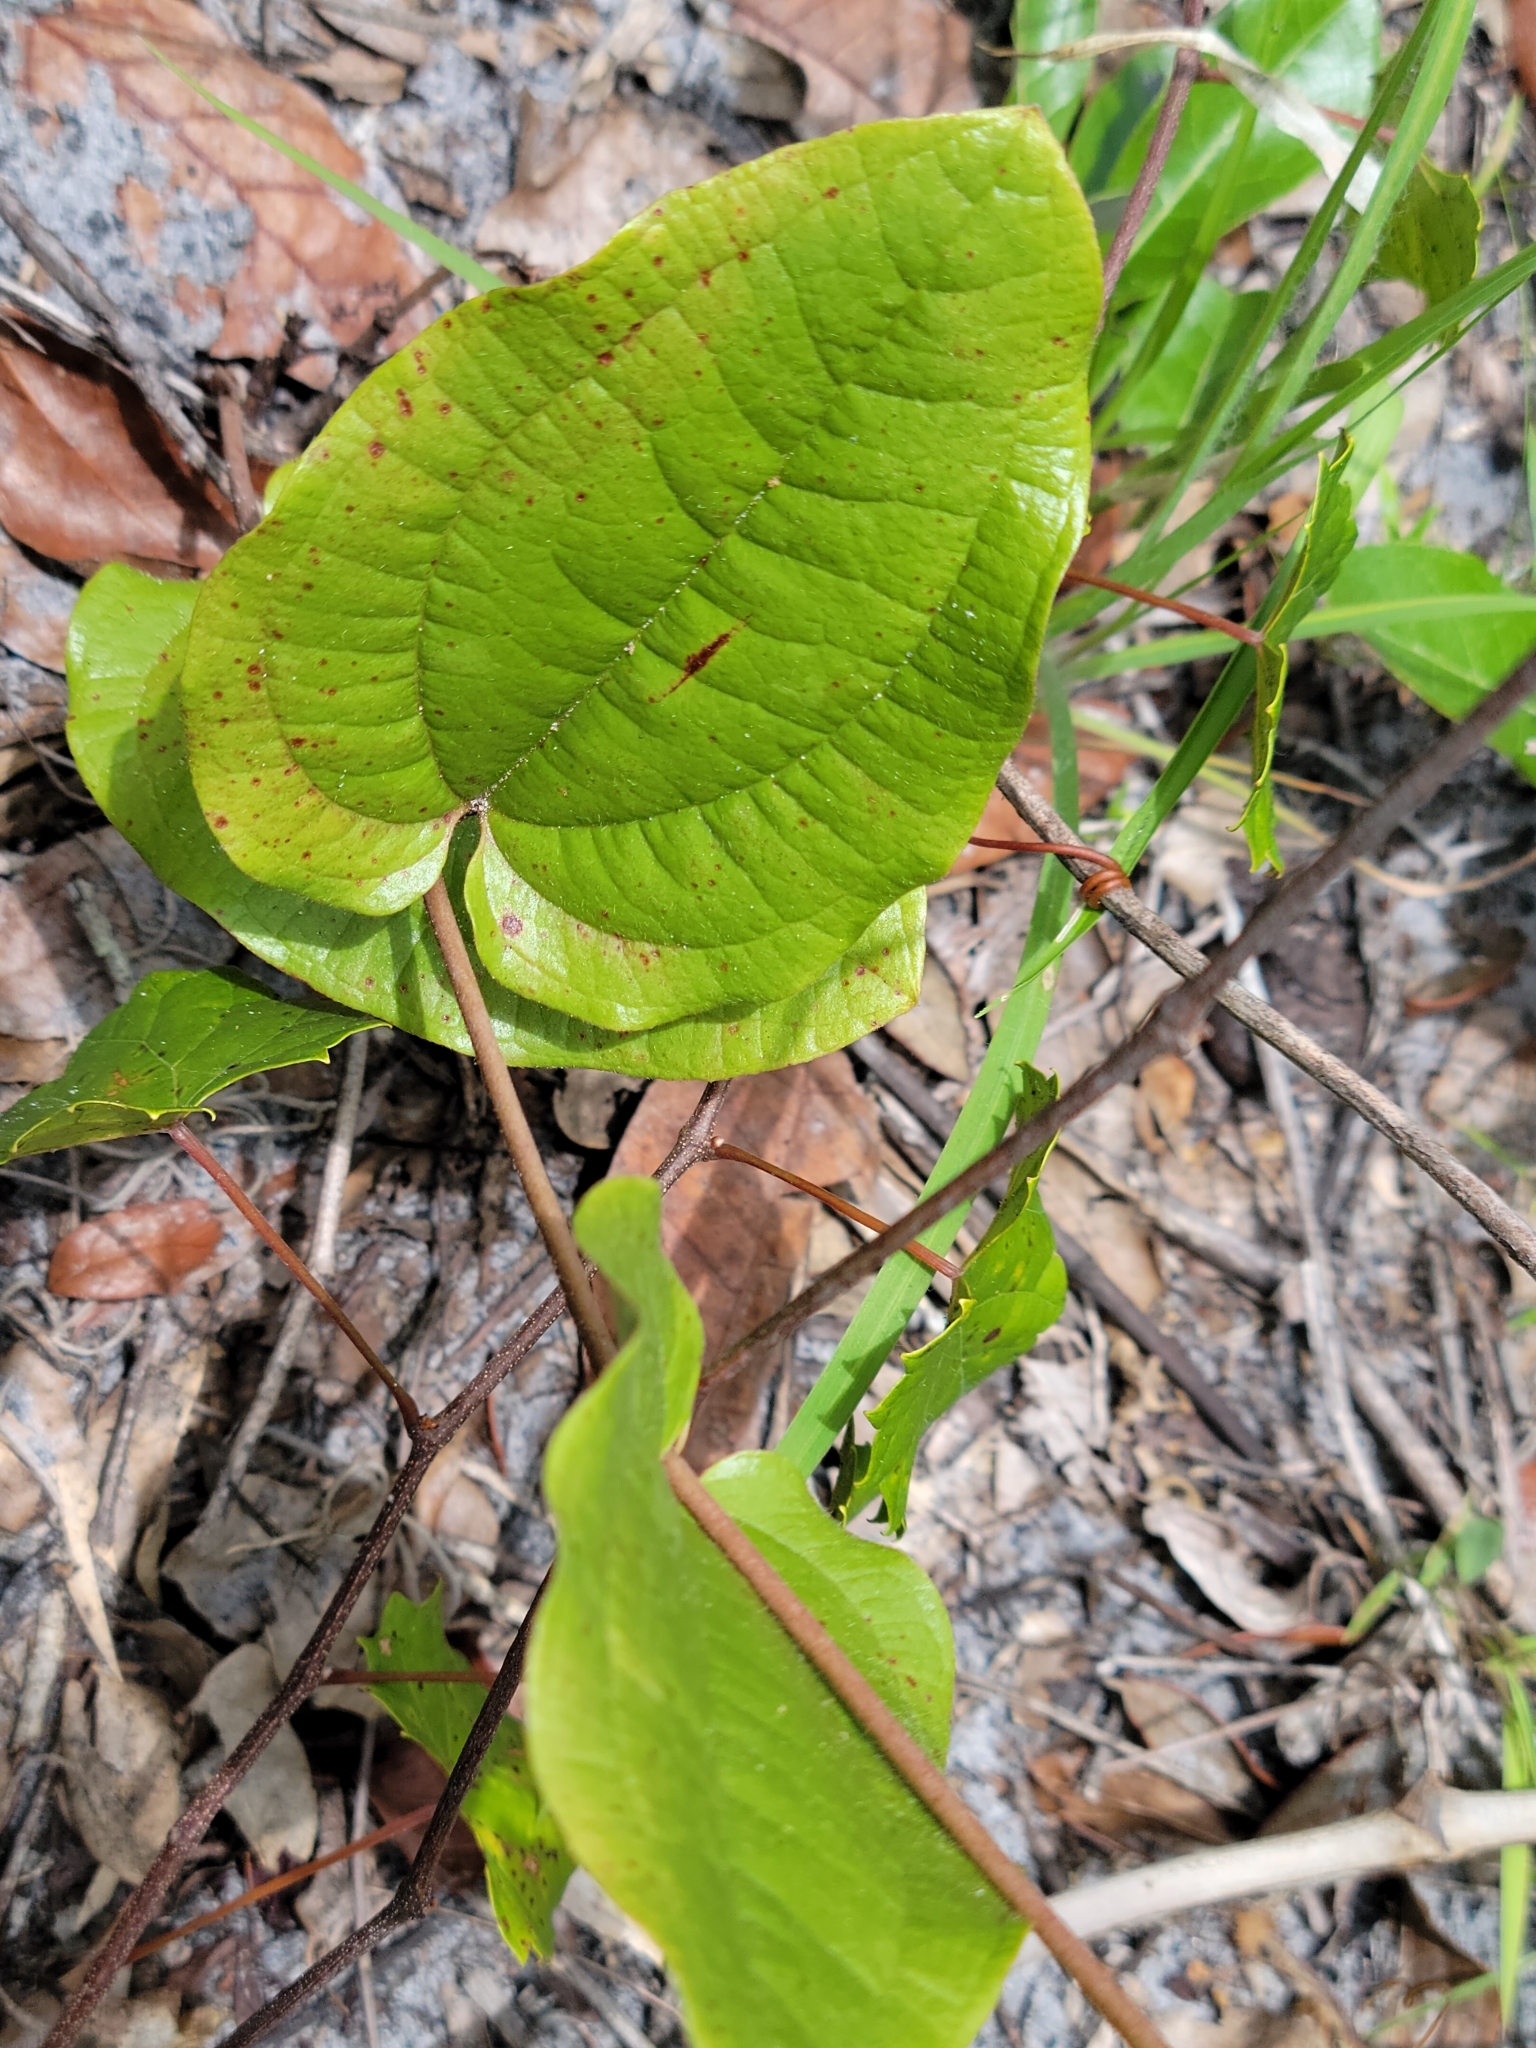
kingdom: Plantae
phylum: Tracheophyta
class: Liliopsida
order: Liliales
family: Smilacaceae
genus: Smilax
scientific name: Smilax pumila
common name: Sarsaparilla-vine
